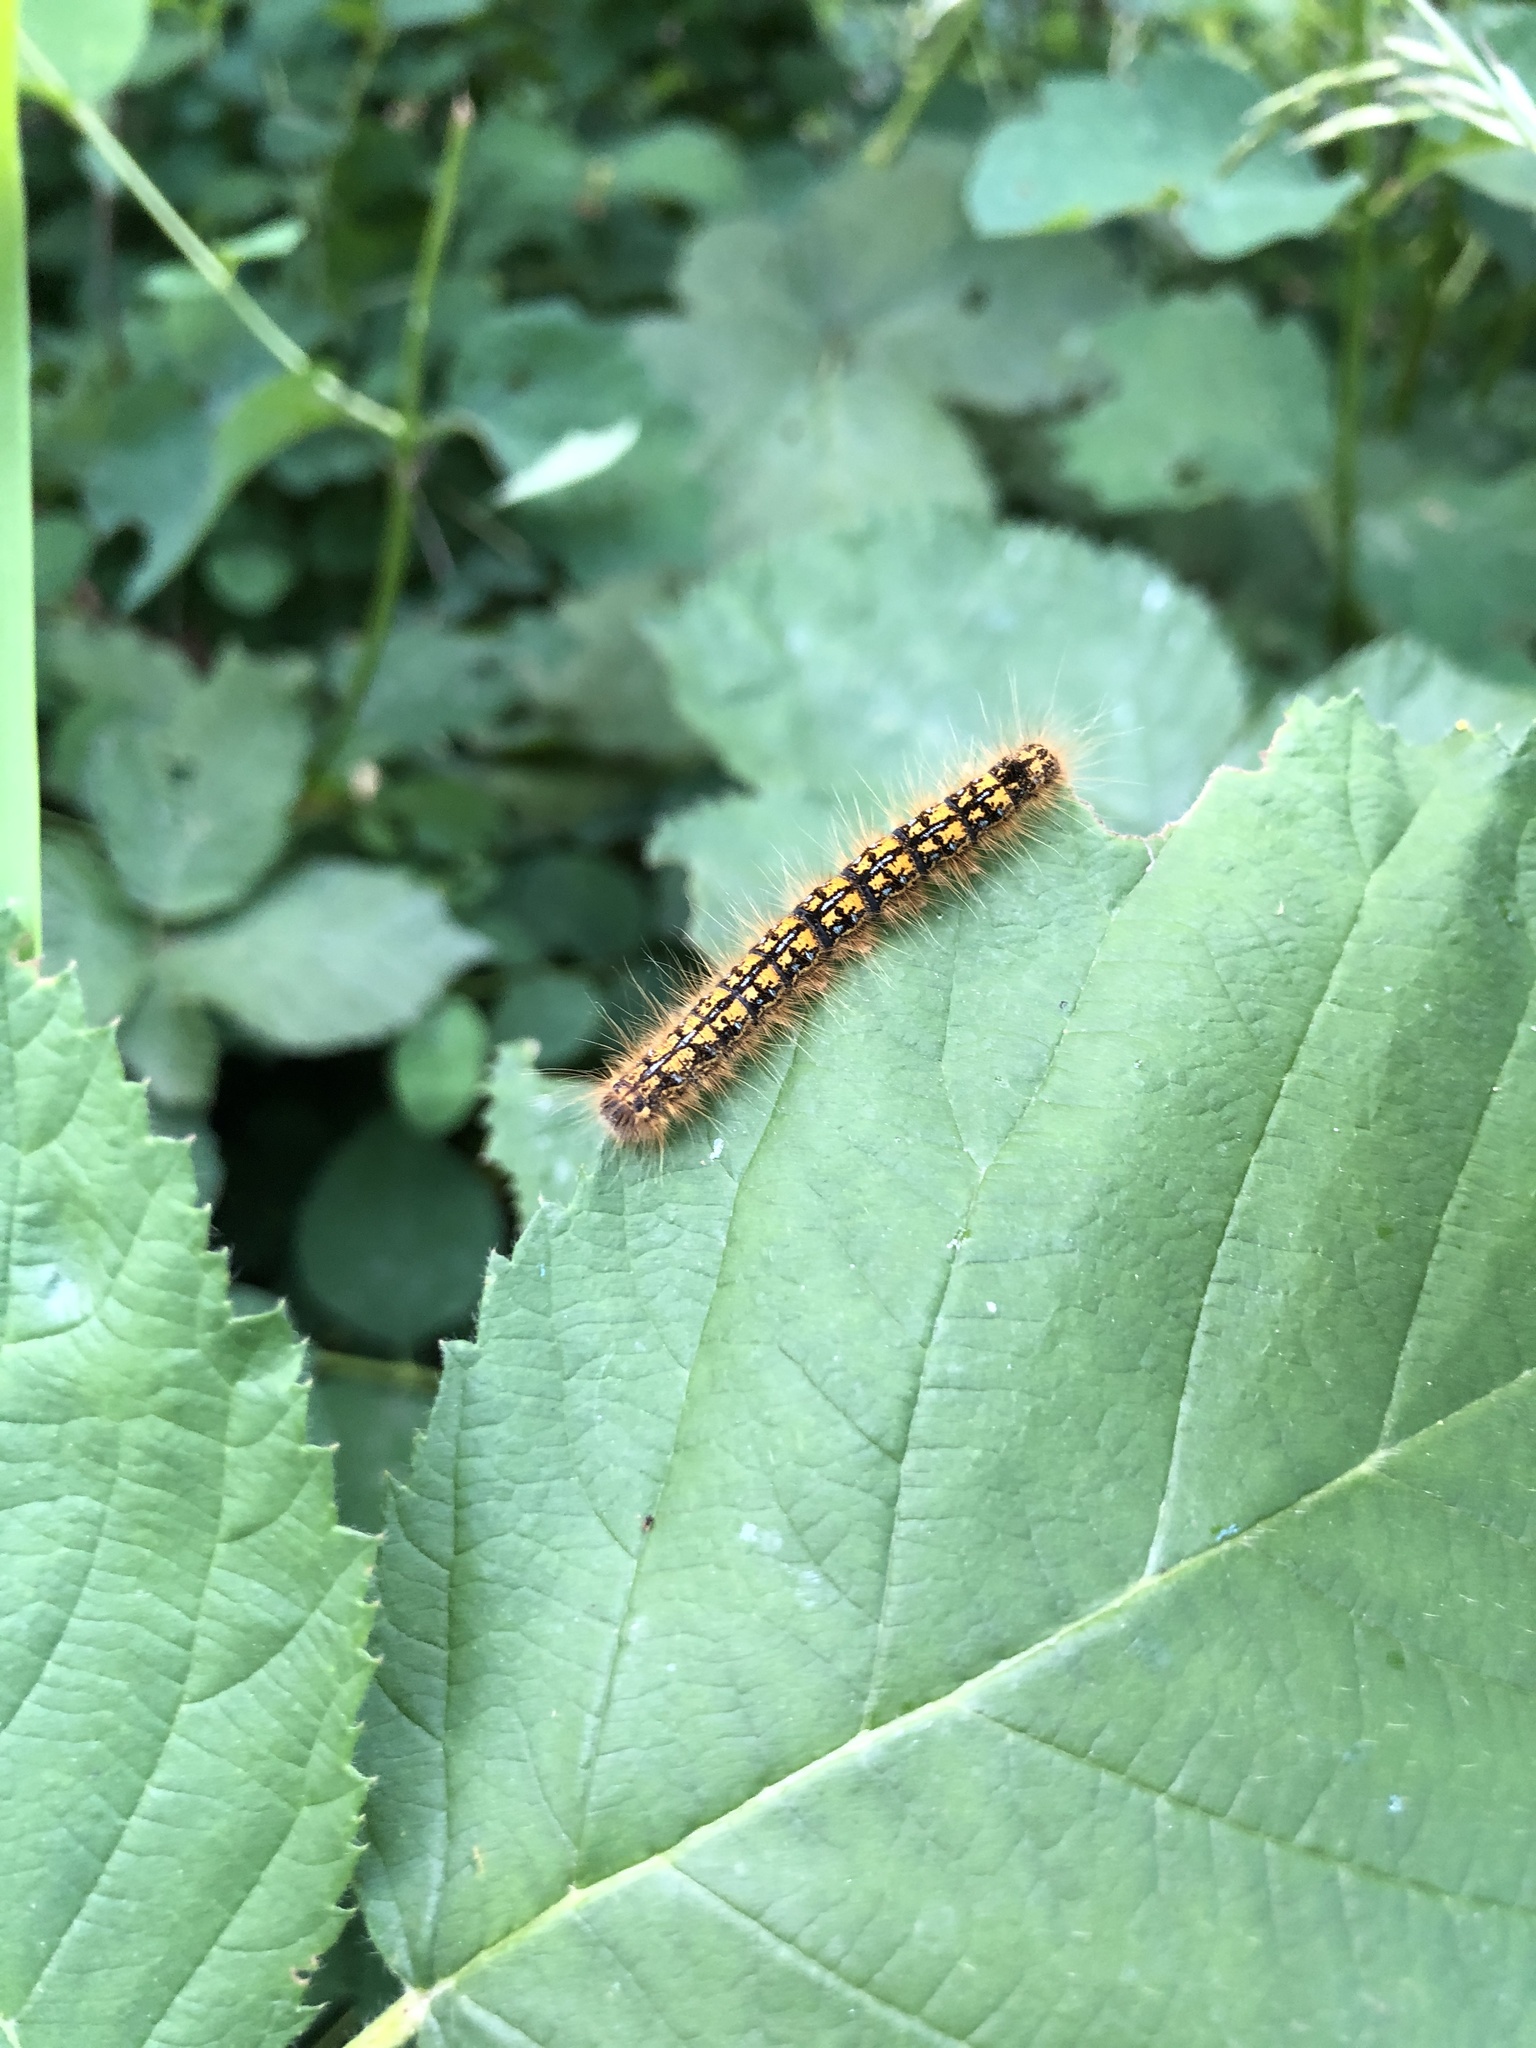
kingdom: Animalia
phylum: Arthropoda
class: Insecta
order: Lepidoptera
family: Lasiocampidae
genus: Malacosoma
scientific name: Malacosoma californica
